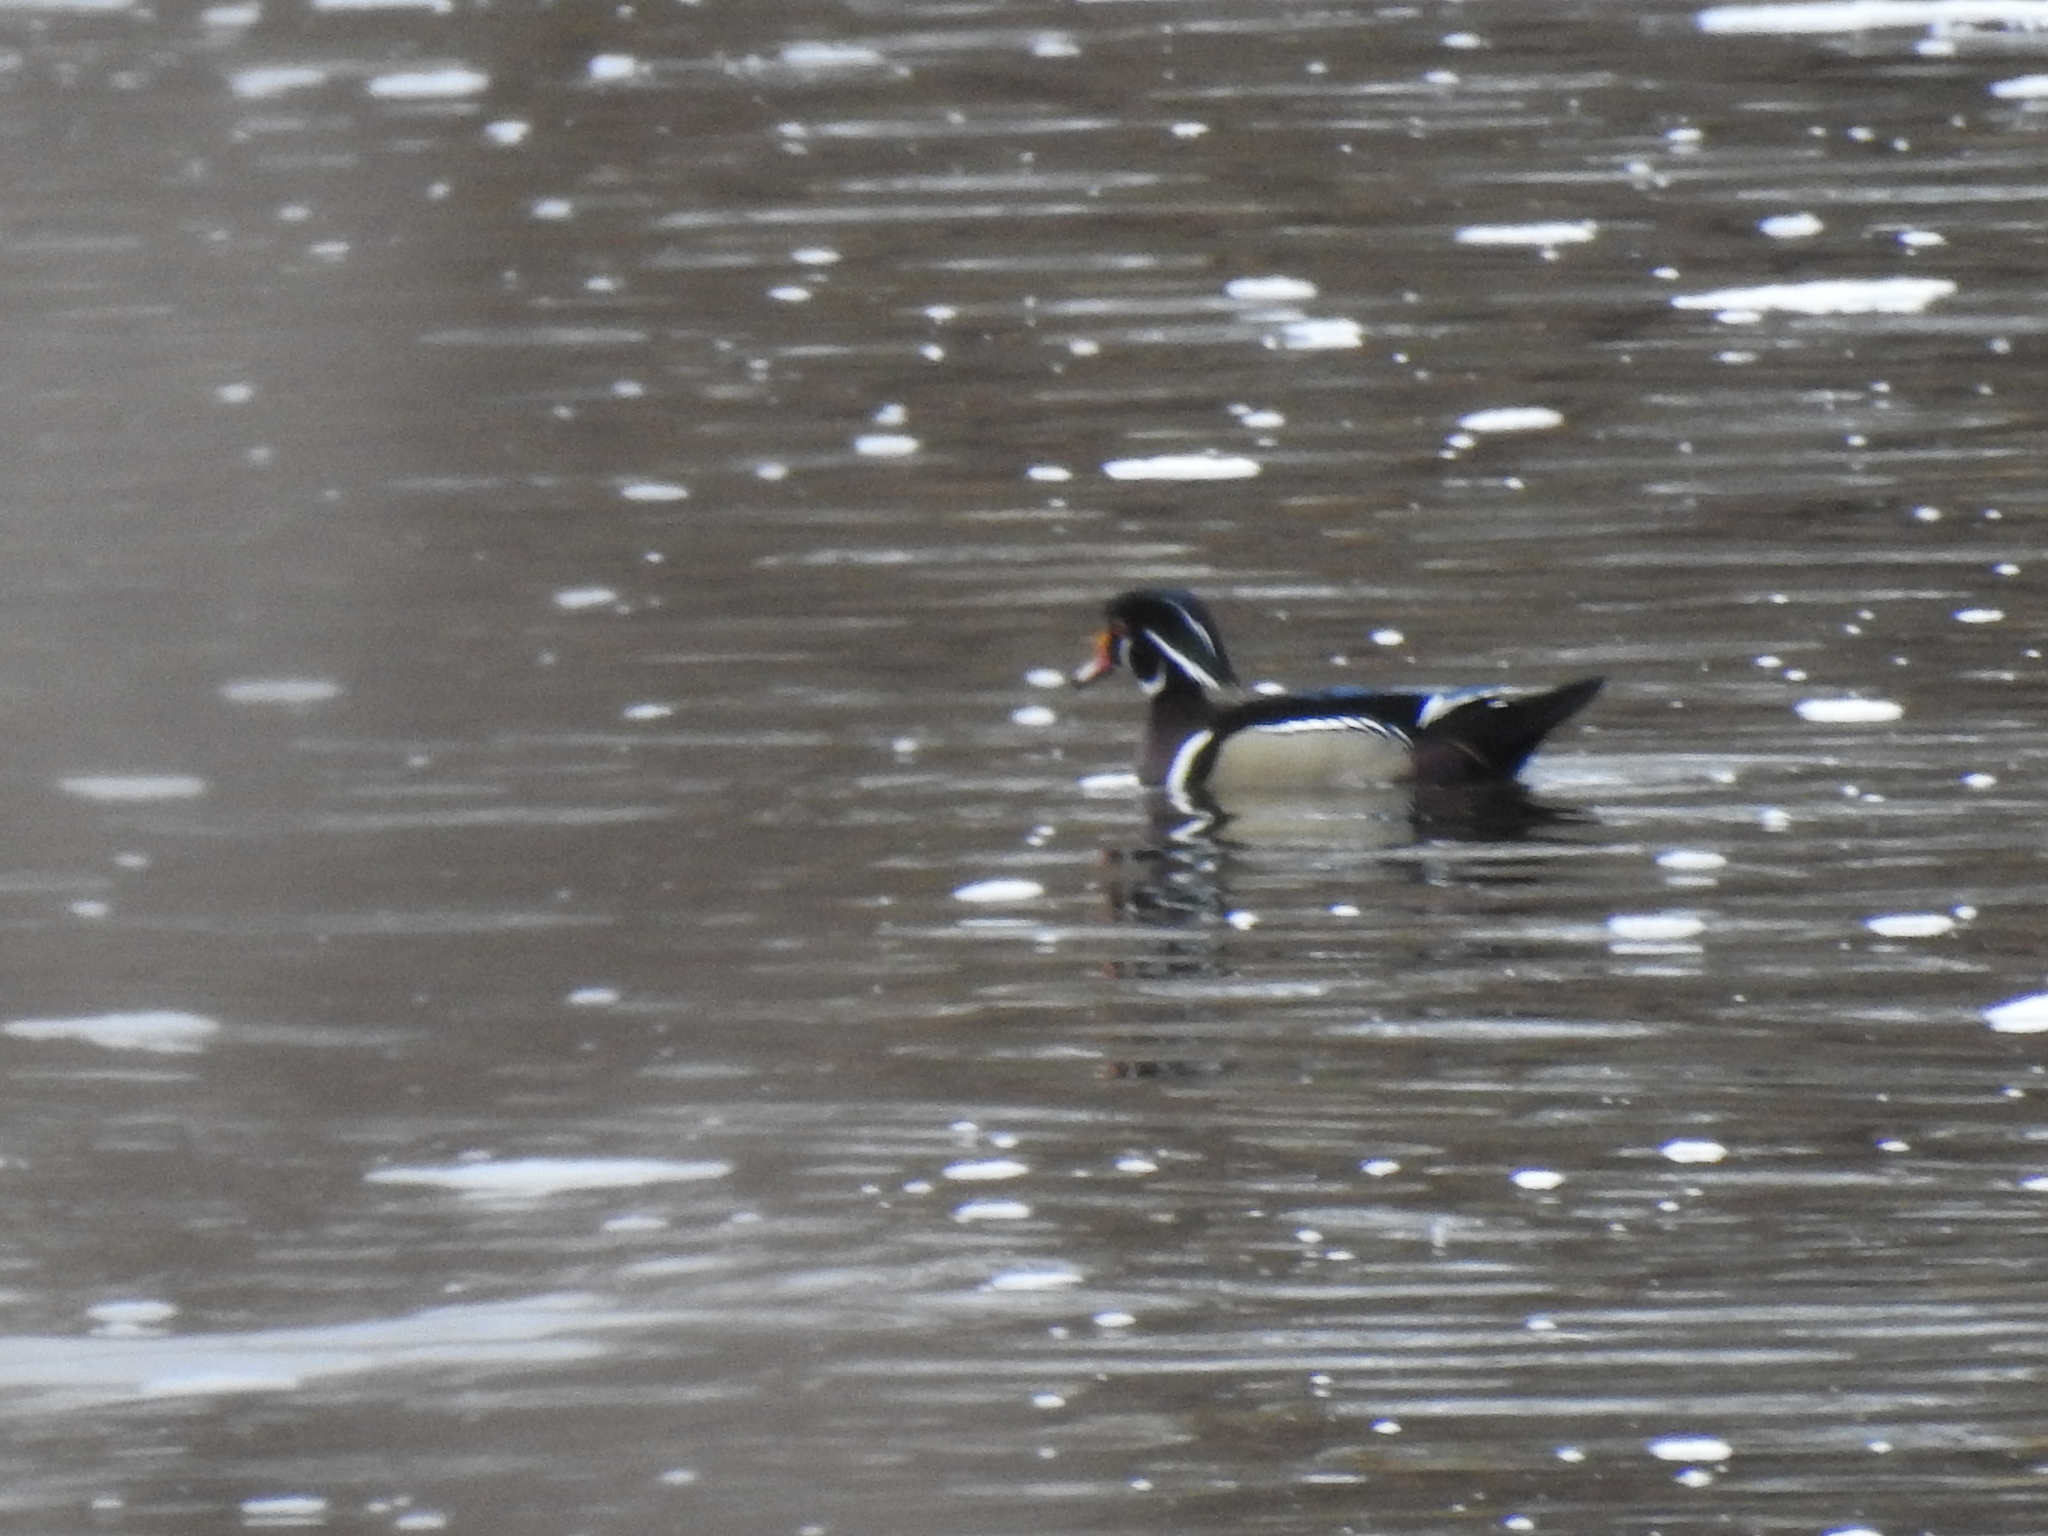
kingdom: Animalia
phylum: Chordata
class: Aves
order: Anseriformes
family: Anatidae
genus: Aix
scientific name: Aix sponsa
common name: Wood duck
